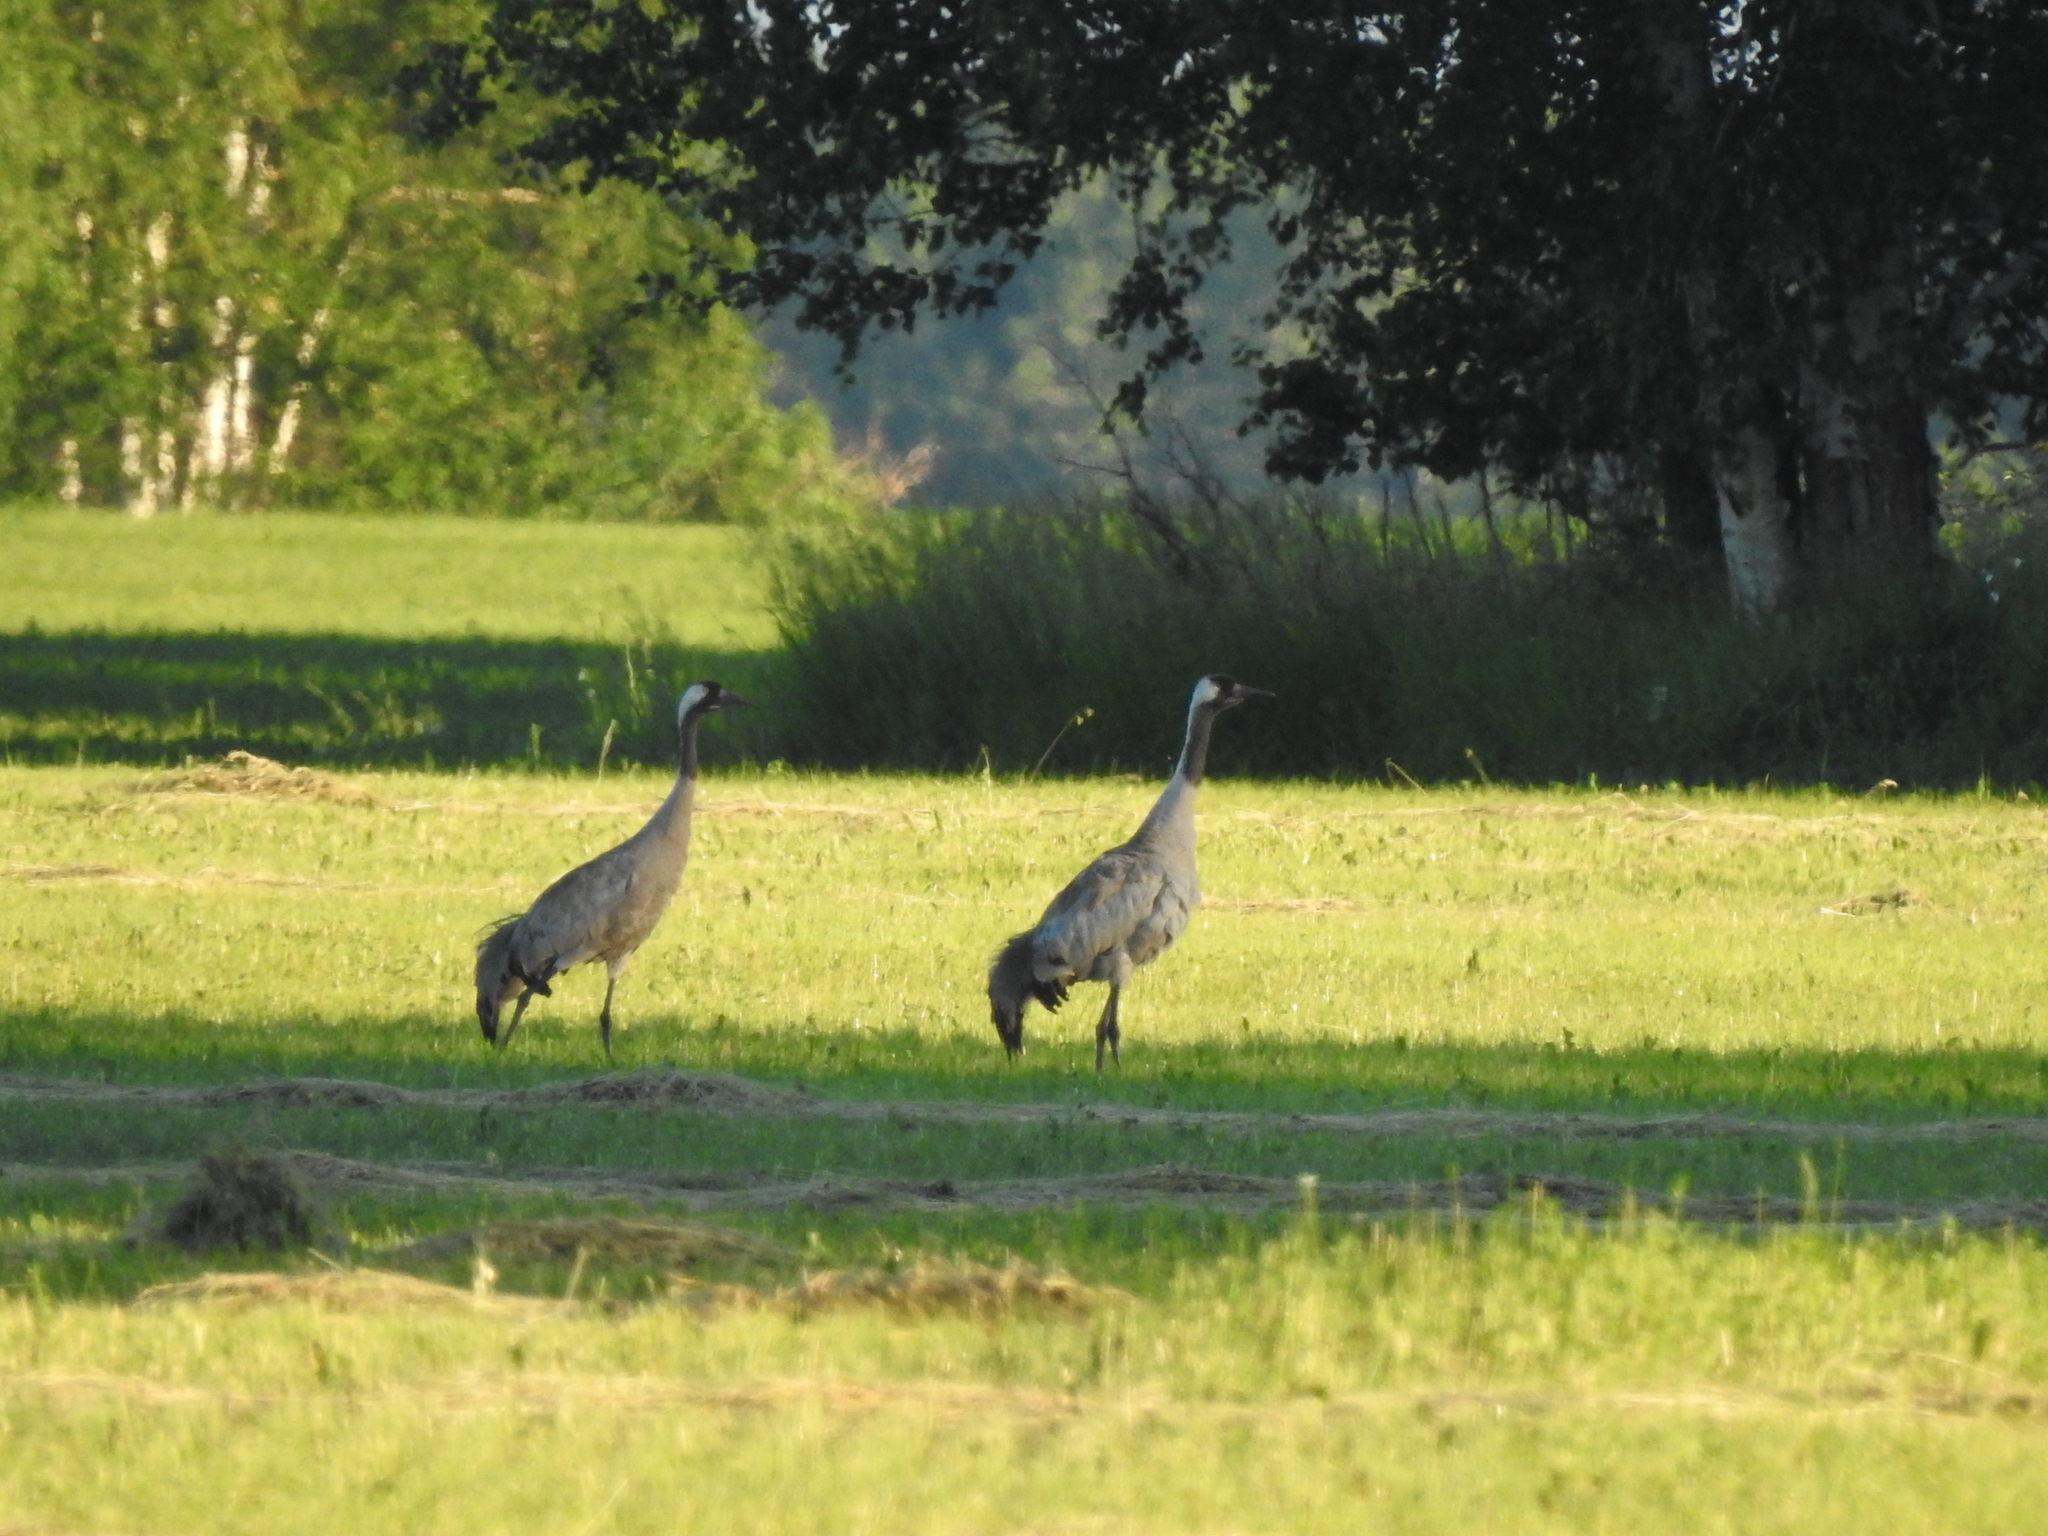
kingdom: Animalia
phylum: Chordata
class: Aves
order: Gruiformes
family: Gruidae
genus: Grus
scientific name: Grus grus
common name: Common crane
